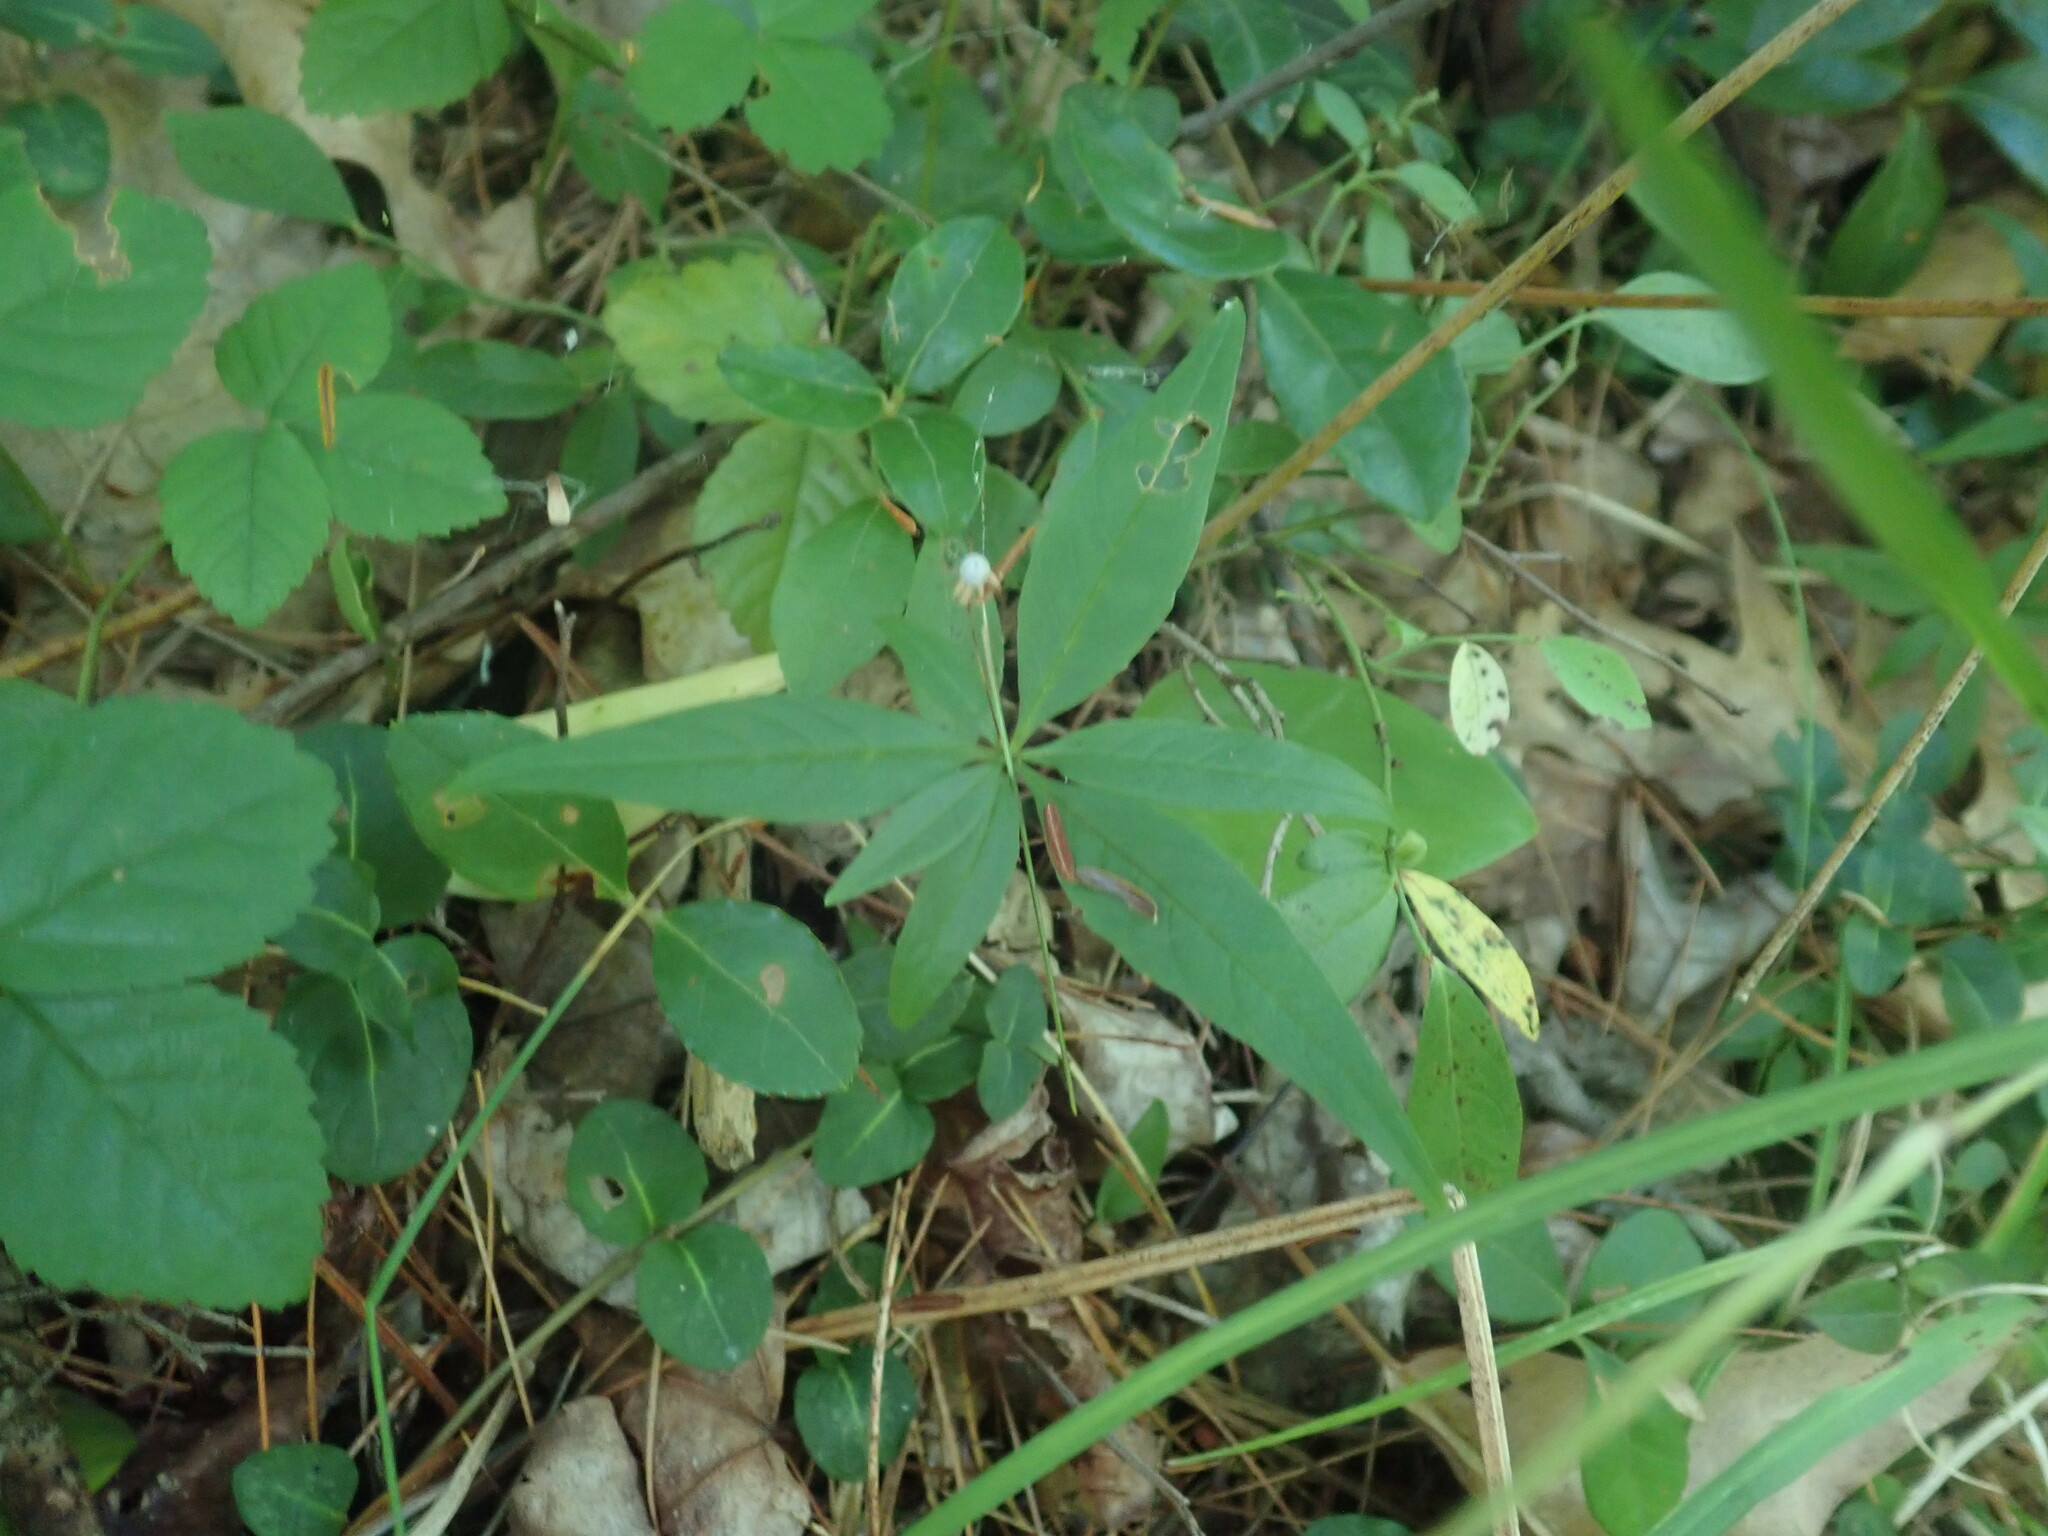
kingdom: Plantae
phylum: Tracheophyta
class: Magnoliopsida
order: Ericales
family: Primulaceae
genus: Lysimachia
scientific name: Lysimachia borealis
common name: American starflower
